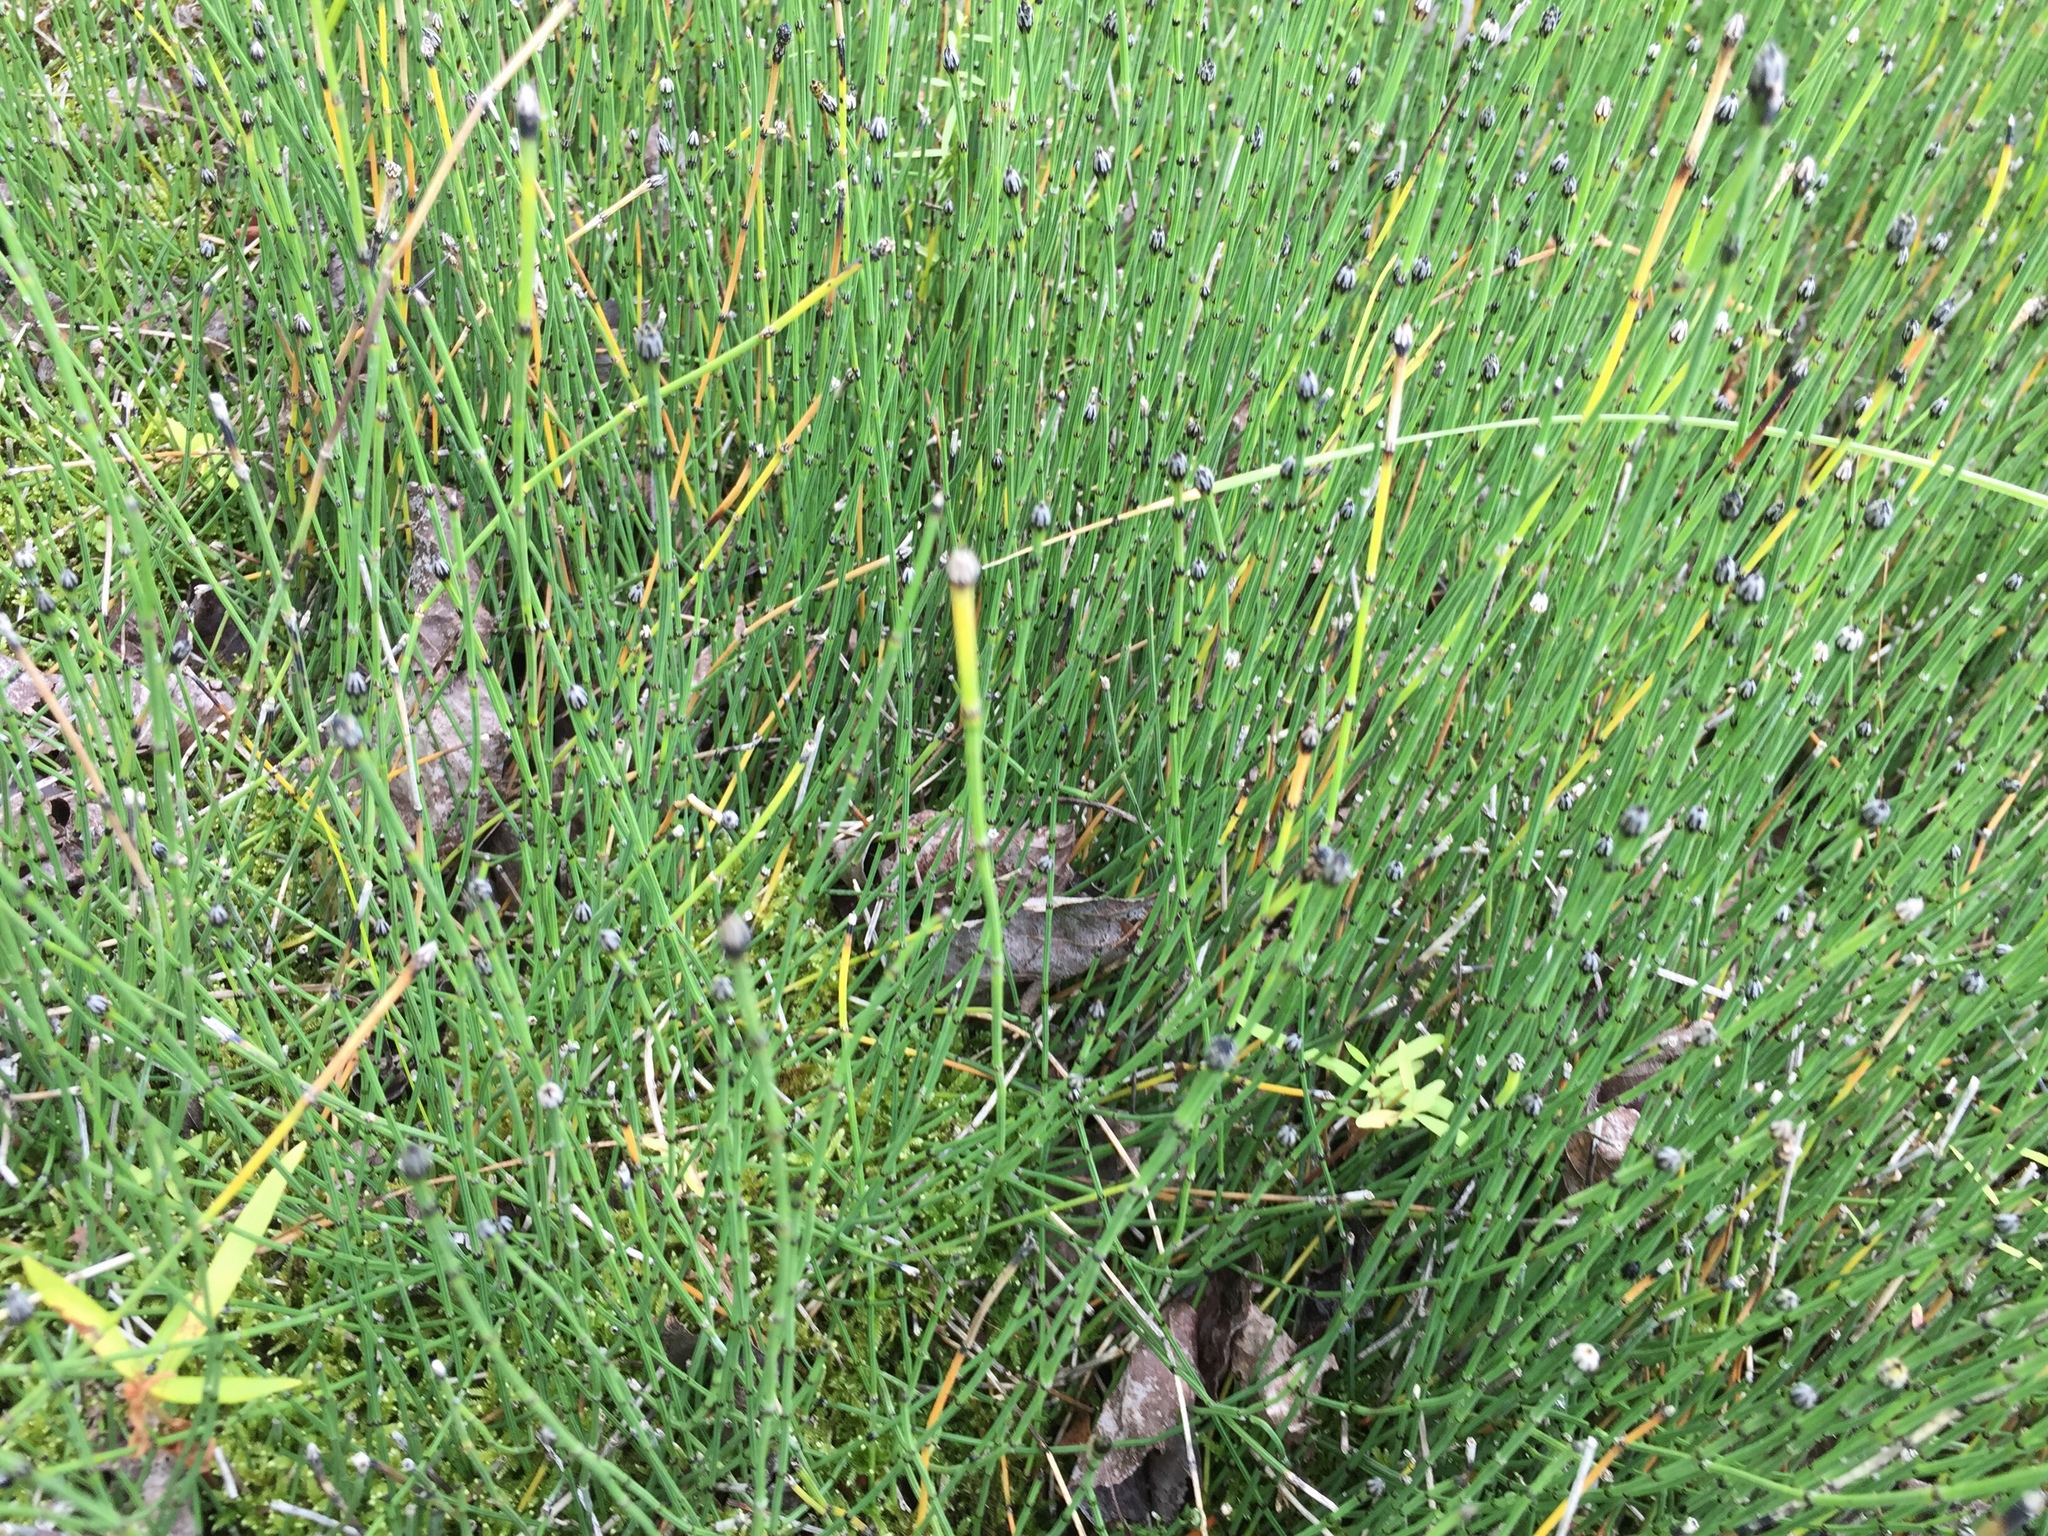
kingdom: Plantae
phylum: Tracheophyta
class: Polypodiopsida
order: Equisetales
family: Equisetaceae
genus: Equisetum
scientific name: Equisetum variegatum
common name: Variegated horsetail
